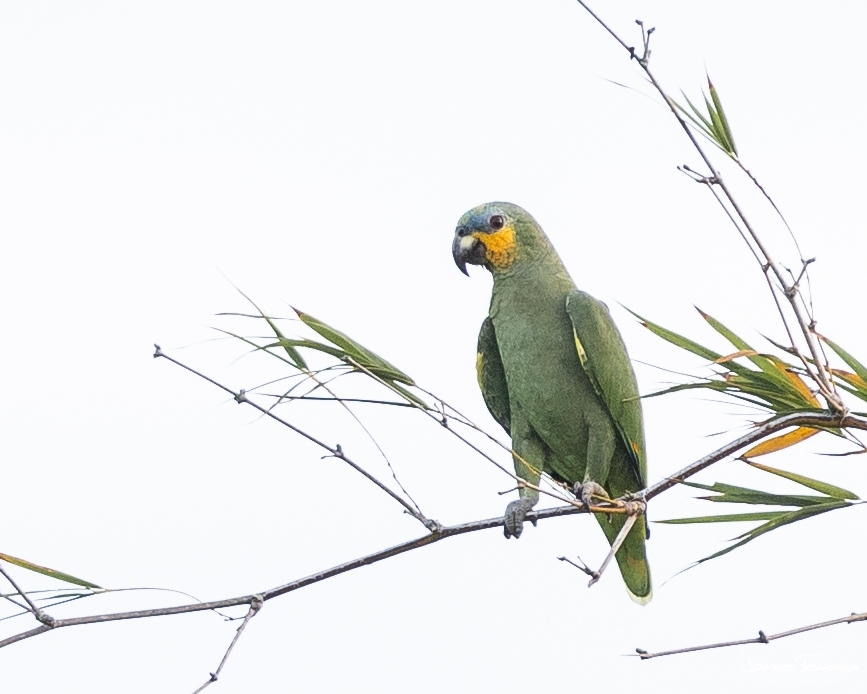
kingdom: Animalia
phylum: Chordata
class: Aves
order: Psittaciformes
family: Psittacidae
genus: Amazona
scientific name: Amazona amazonica
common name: Orange-winged amazon
